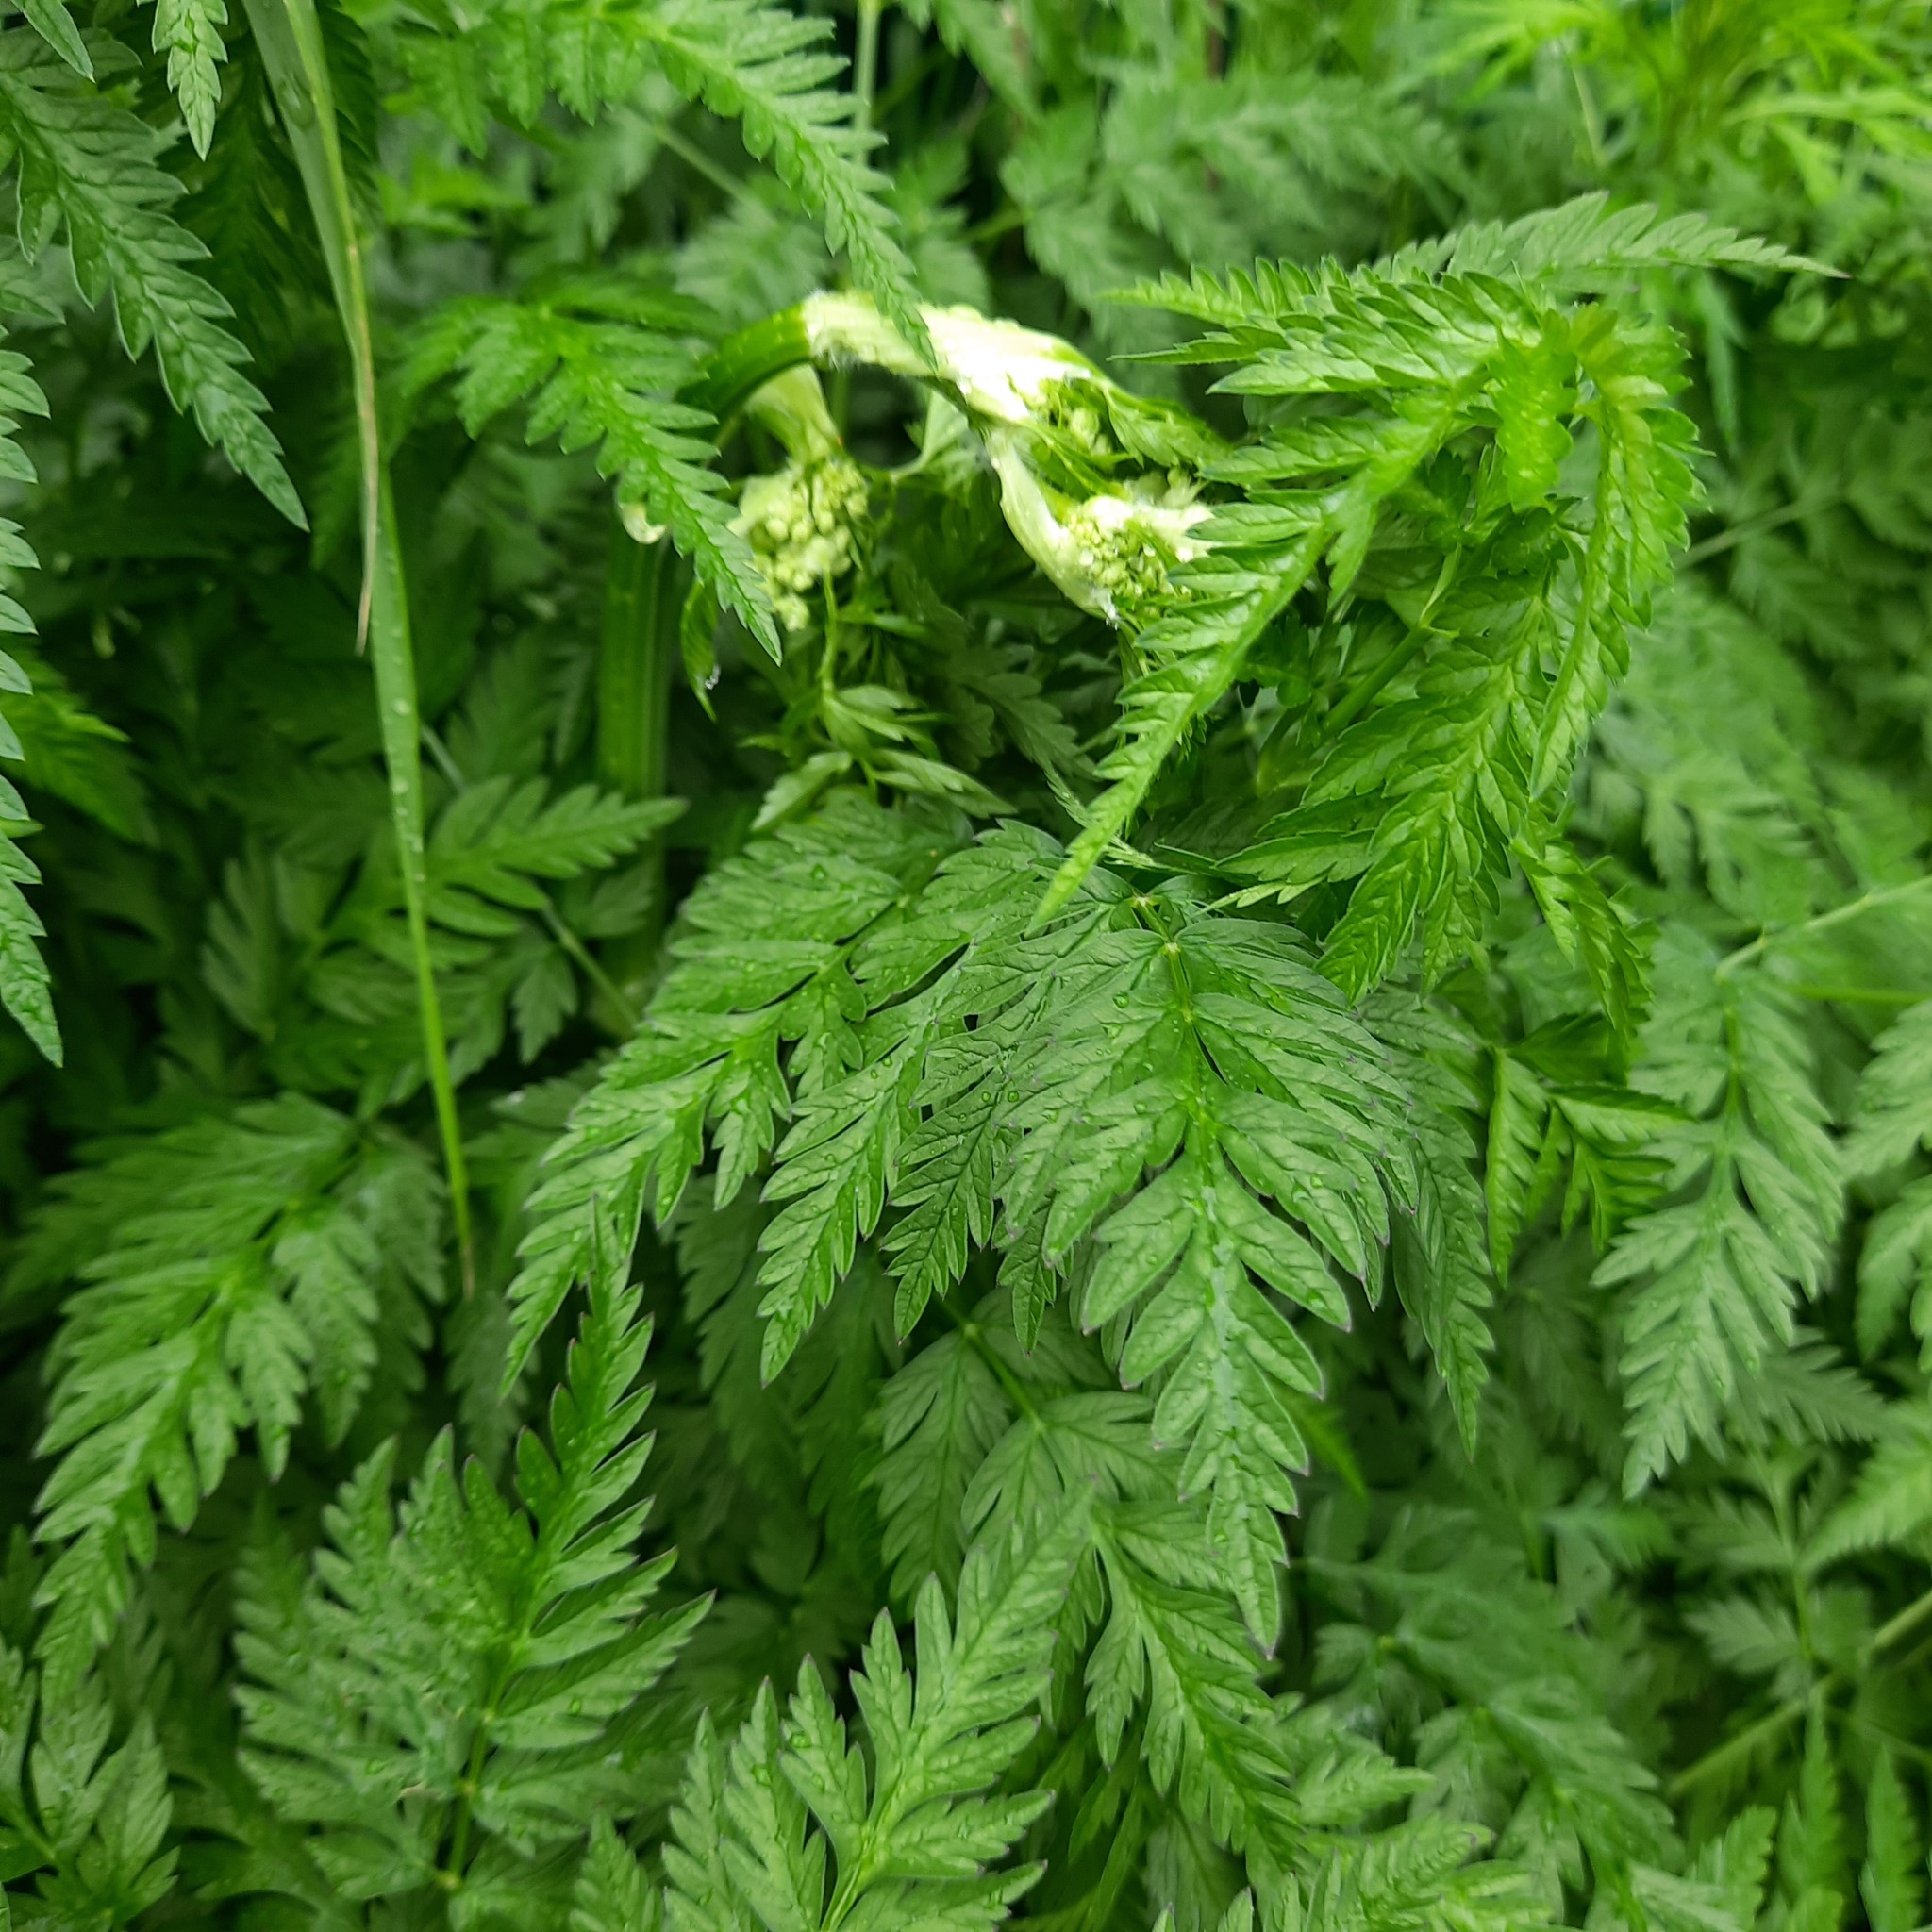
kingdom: Plantae
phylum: Tracheophyta
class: Magnoliopsida
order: Apiales
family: Apiaceae
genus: Anthriscus
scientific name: Anthriscus sylvestris
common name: Cow parsley
